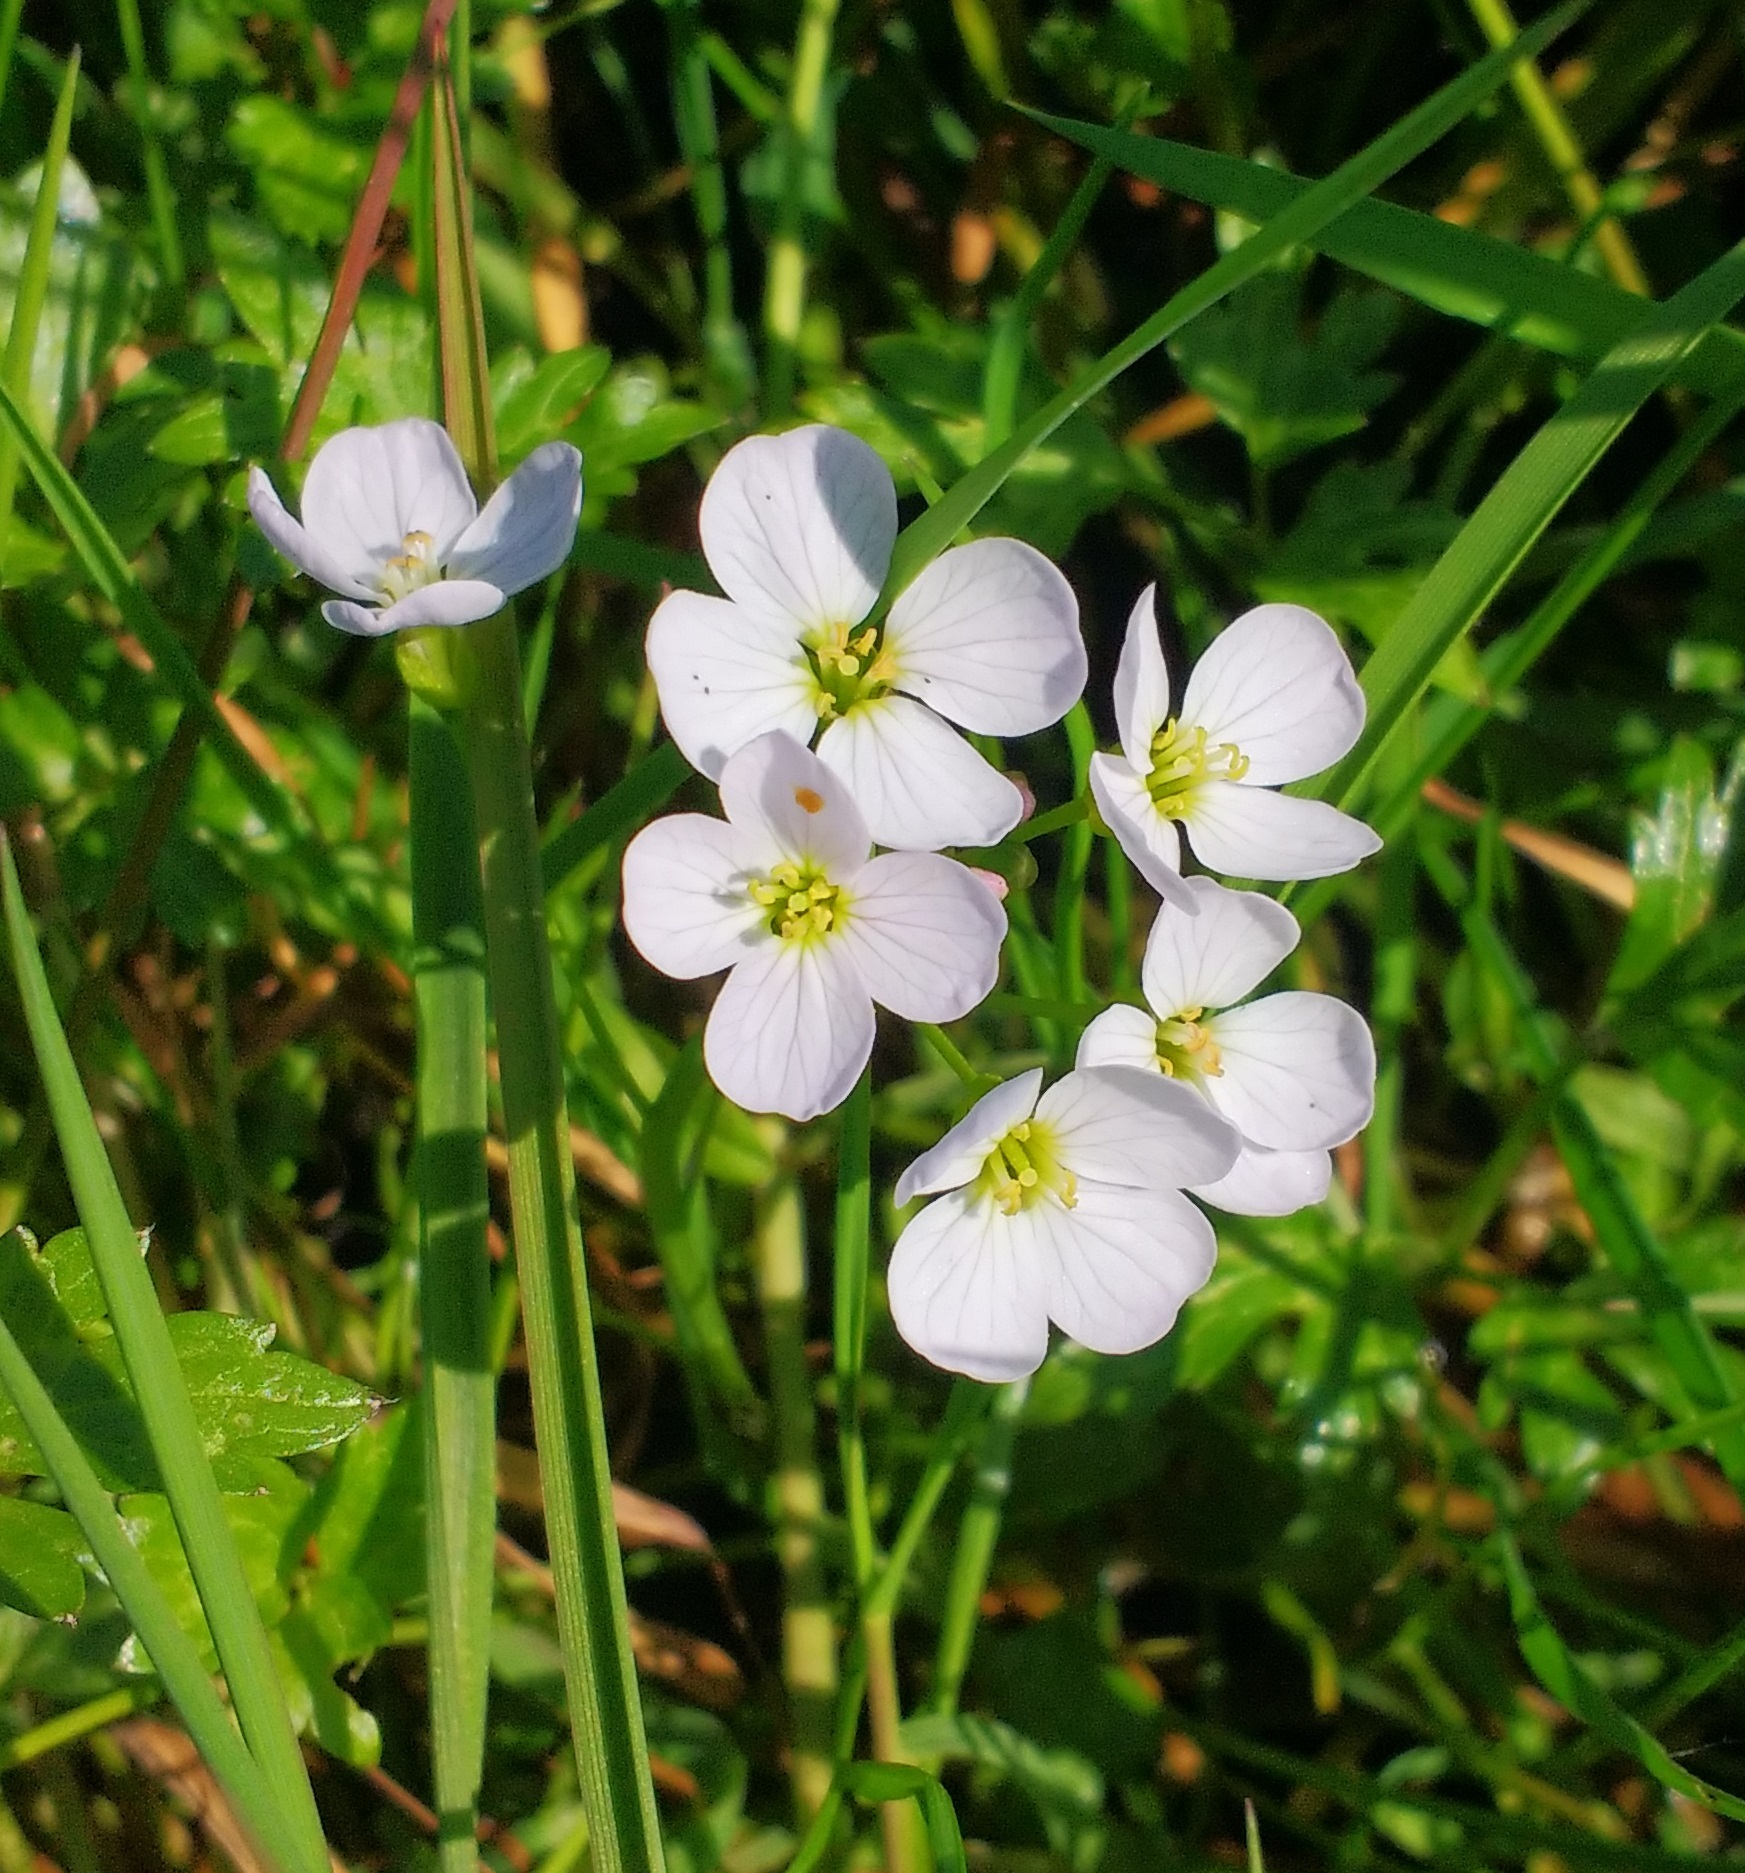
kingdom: Plantae
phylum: Tracheophyta
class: Magnoliopsida
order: Brassicales
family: Brassicaceae
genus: Cardamine
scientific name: Cardamine pratensis
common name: Cuckoo flower
